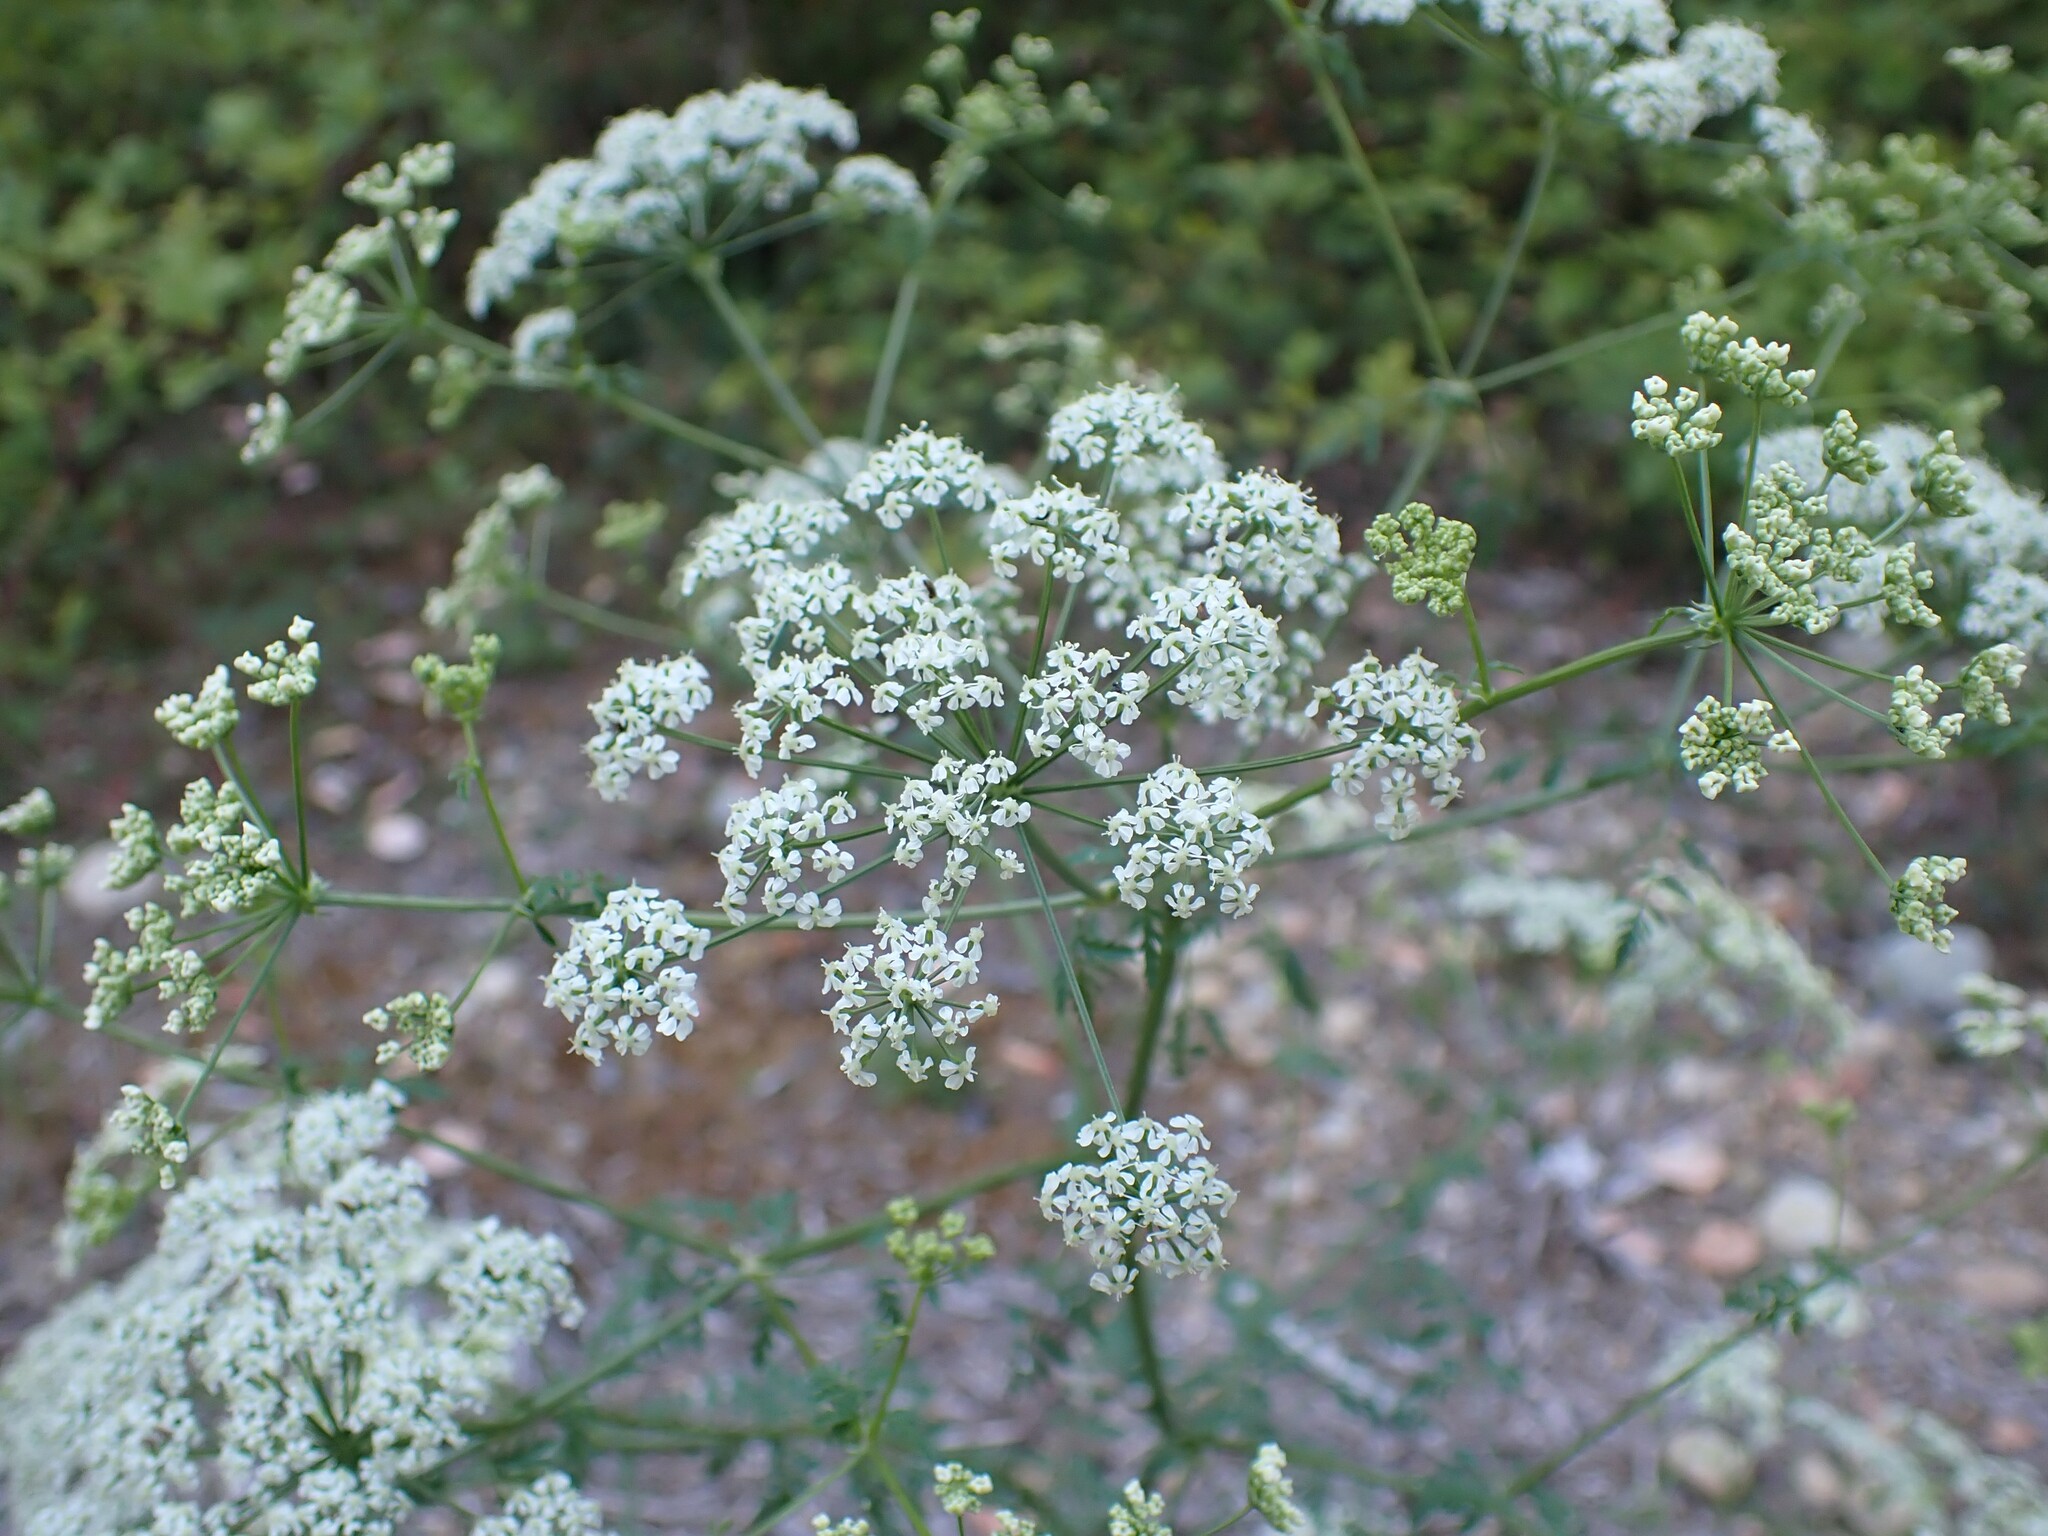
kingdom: Plantae
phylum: Tracheophyta
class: Magnoliopsida
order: Apiales
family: Apiaceae
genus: Conium
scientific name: Conium maculatum
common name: Hemlock
